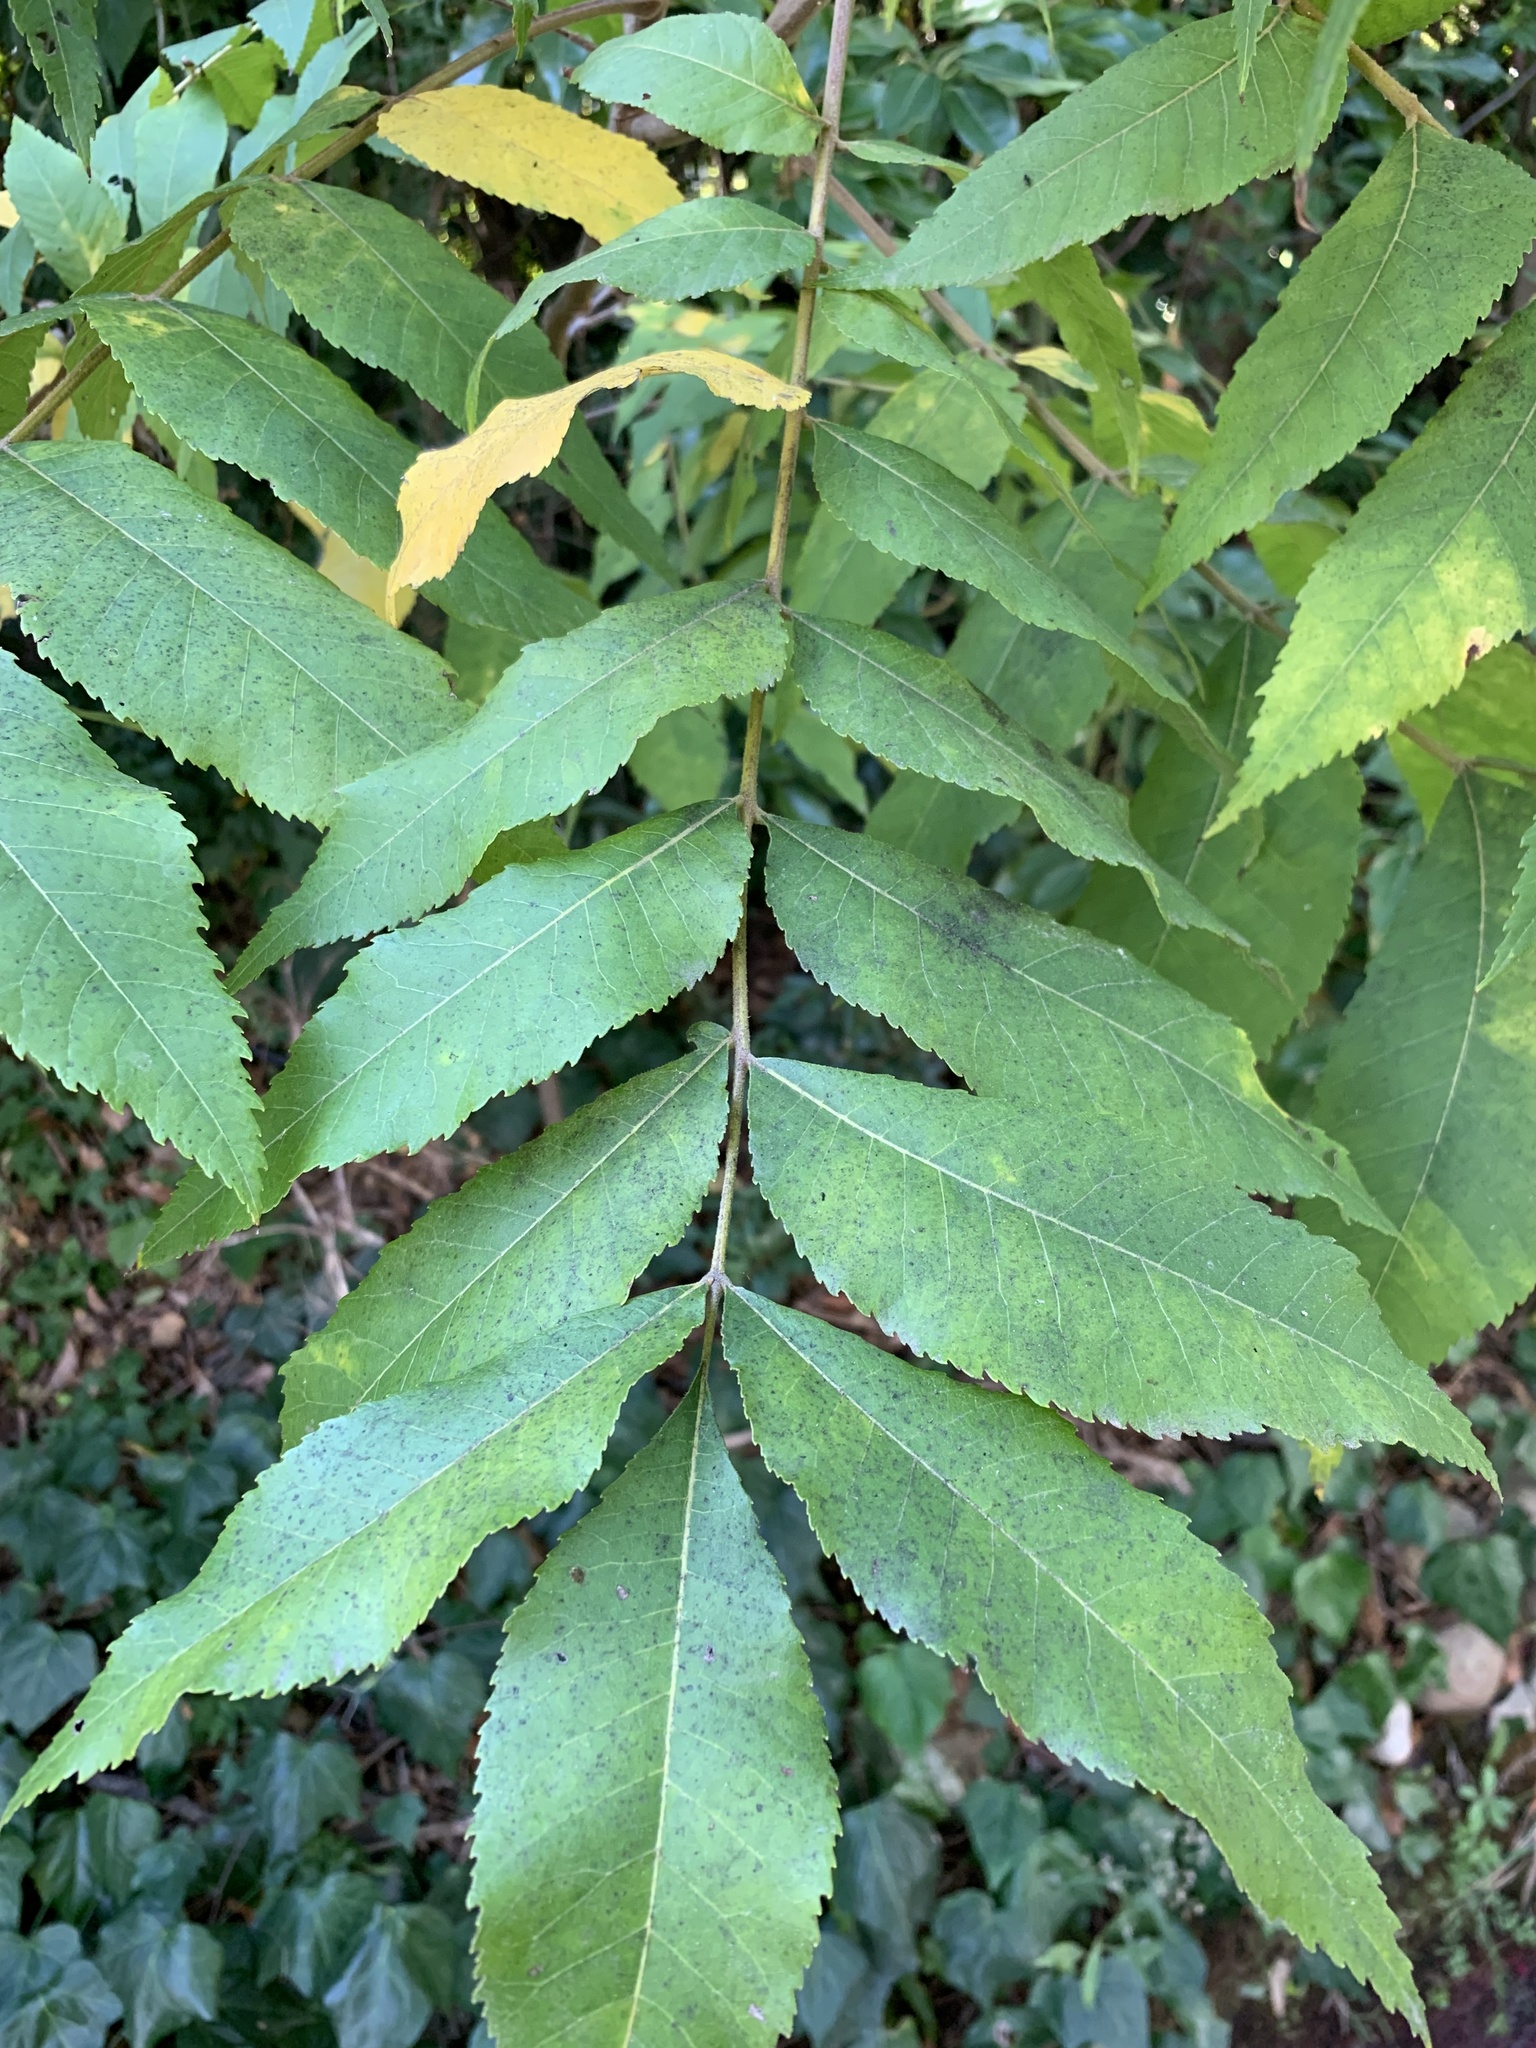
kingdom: Plantae
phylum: Tracheophyta
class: Magnoliopsida
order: Fagales
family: Juglandaceae
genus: Carya
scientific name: Carya illinoinensis
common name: Pecan
